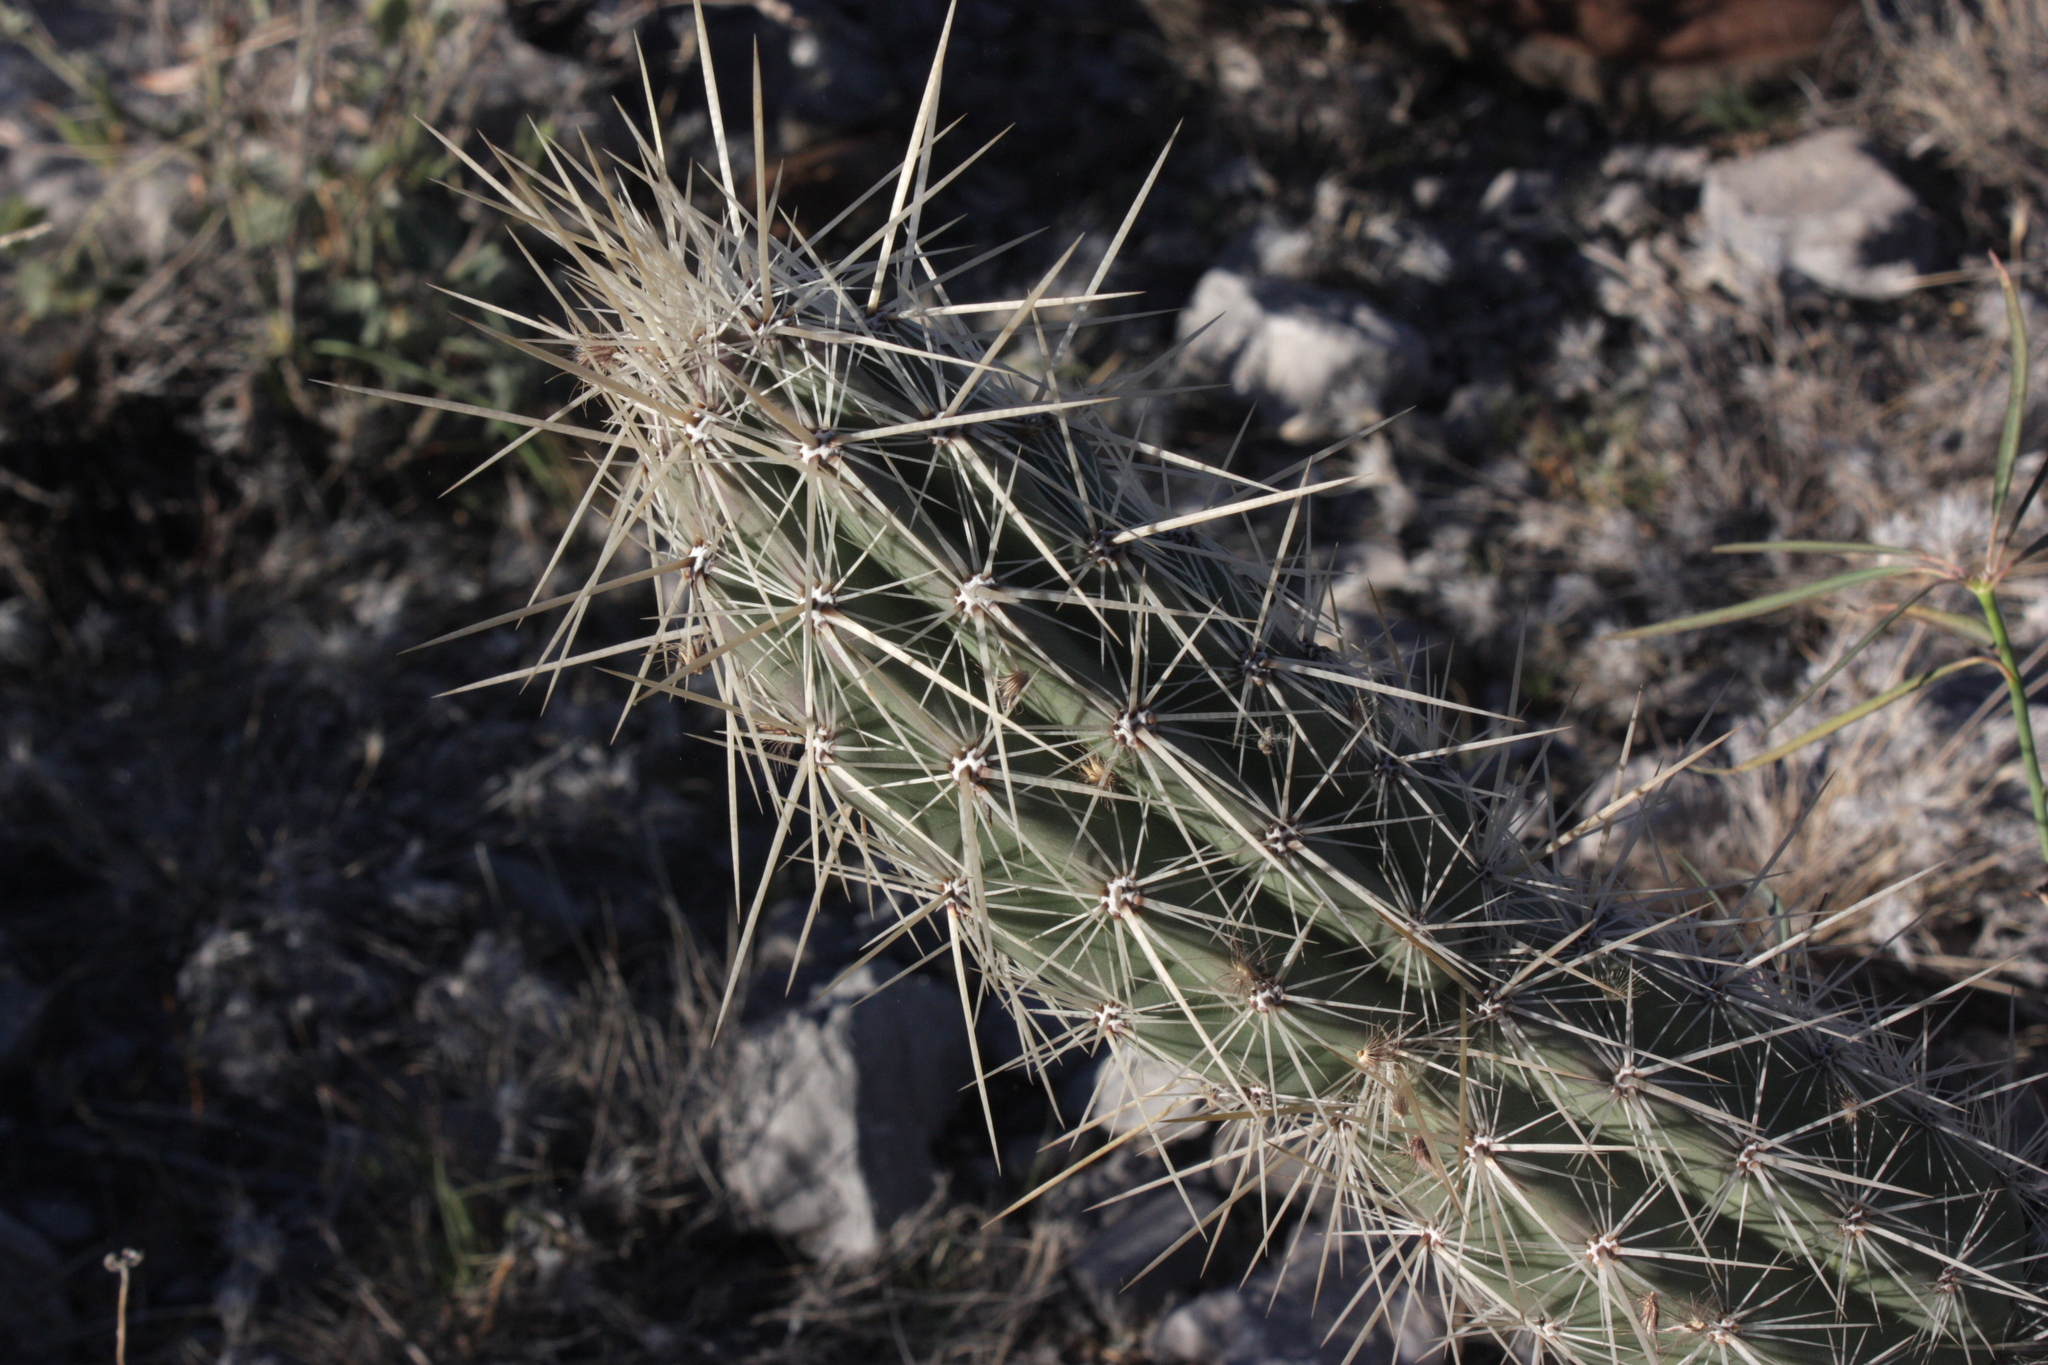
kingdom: Plantae
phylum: Tracheophyta
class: Magnoliopsida
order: Caryophyllales
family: Cactaceae
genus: Grusonia
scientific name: Grusonia bradtiana
